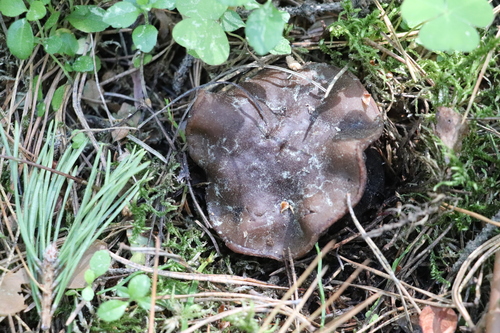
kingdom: Fungi
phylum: Ascomycota
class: Pezizomycetes
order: Pezizales
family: Sarcosomataceae
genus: Sarcosoma
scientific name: Sarcosoma globosum
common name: Charred-pancake cup
